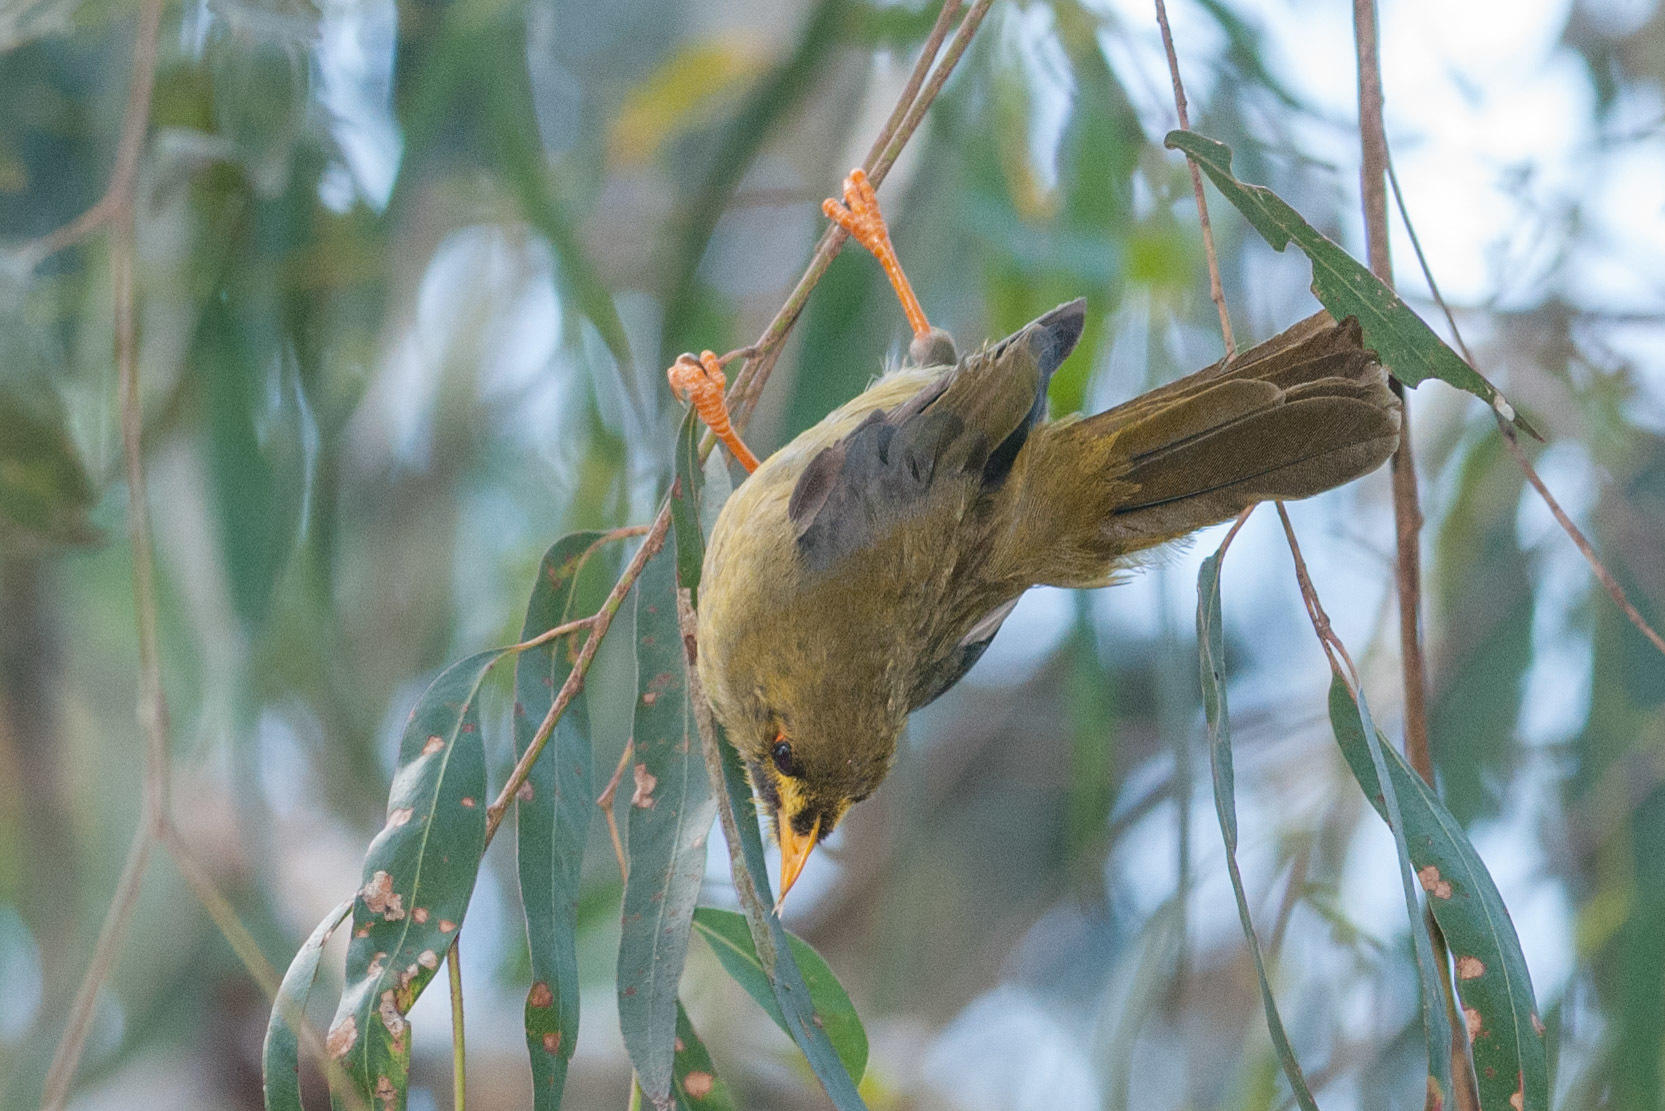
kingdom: Animalia
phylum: Chordata
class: Aves
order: Passeriformes
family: Meliphagidae
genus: Manorina
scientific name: Manorina melanophrys
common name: Bell miner
